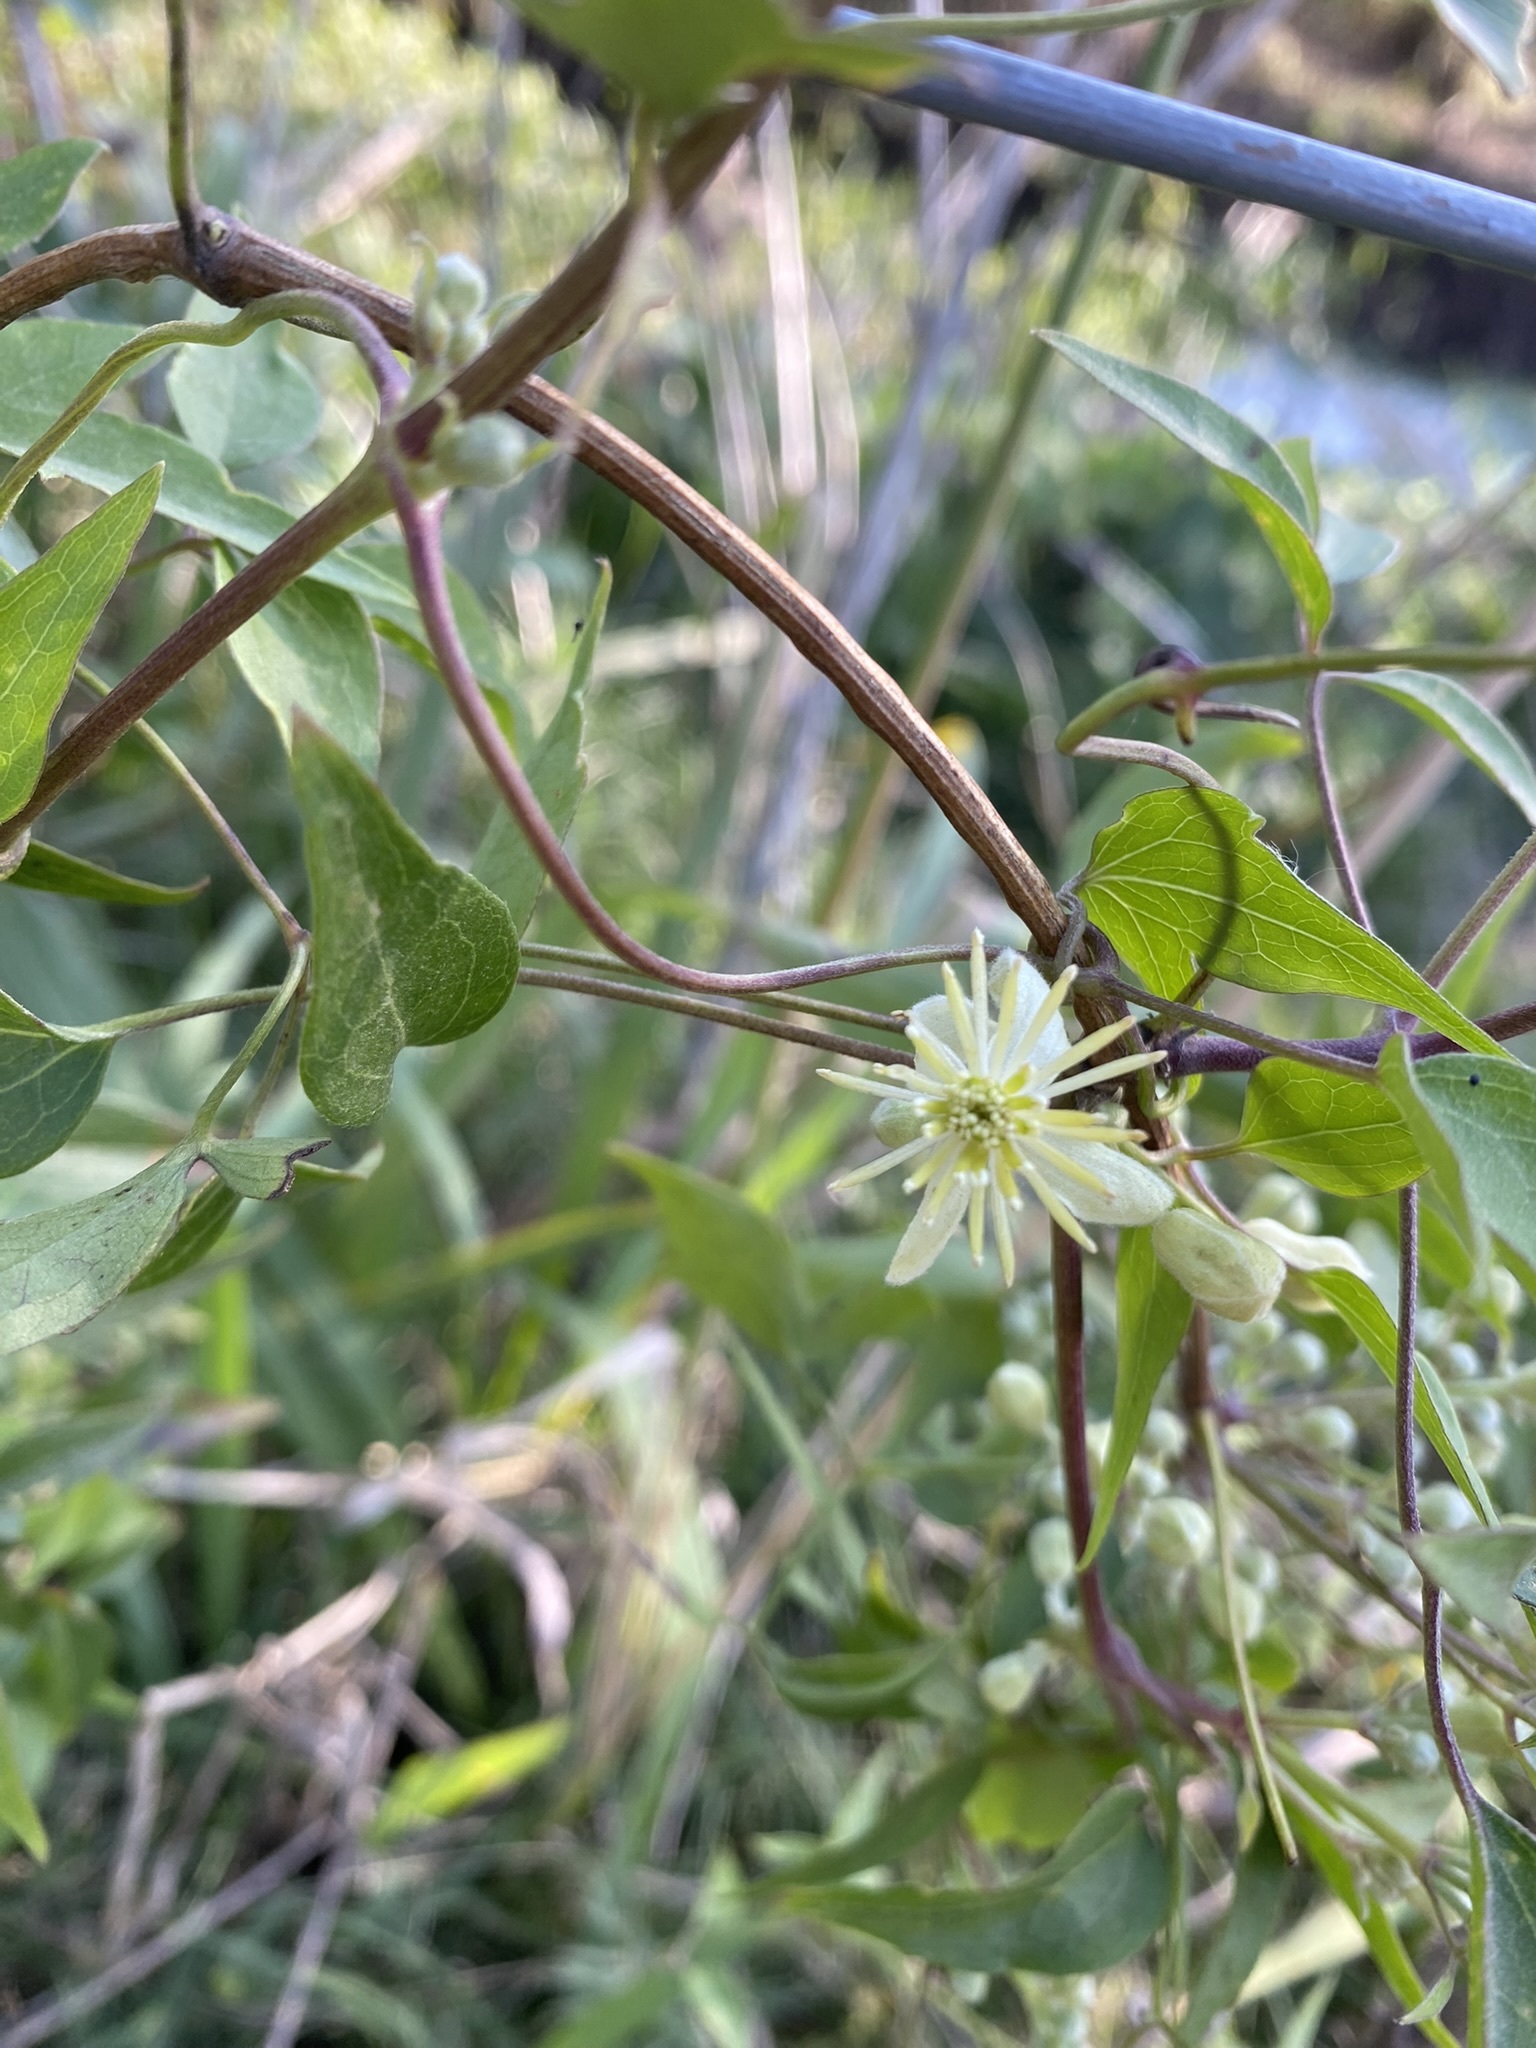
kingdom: Plantae
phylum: Tracheophyta
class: Magnoliopsida
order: Ranunculales
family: Ranunculaceae
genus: Clematis
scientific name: Clematis montevidensis
